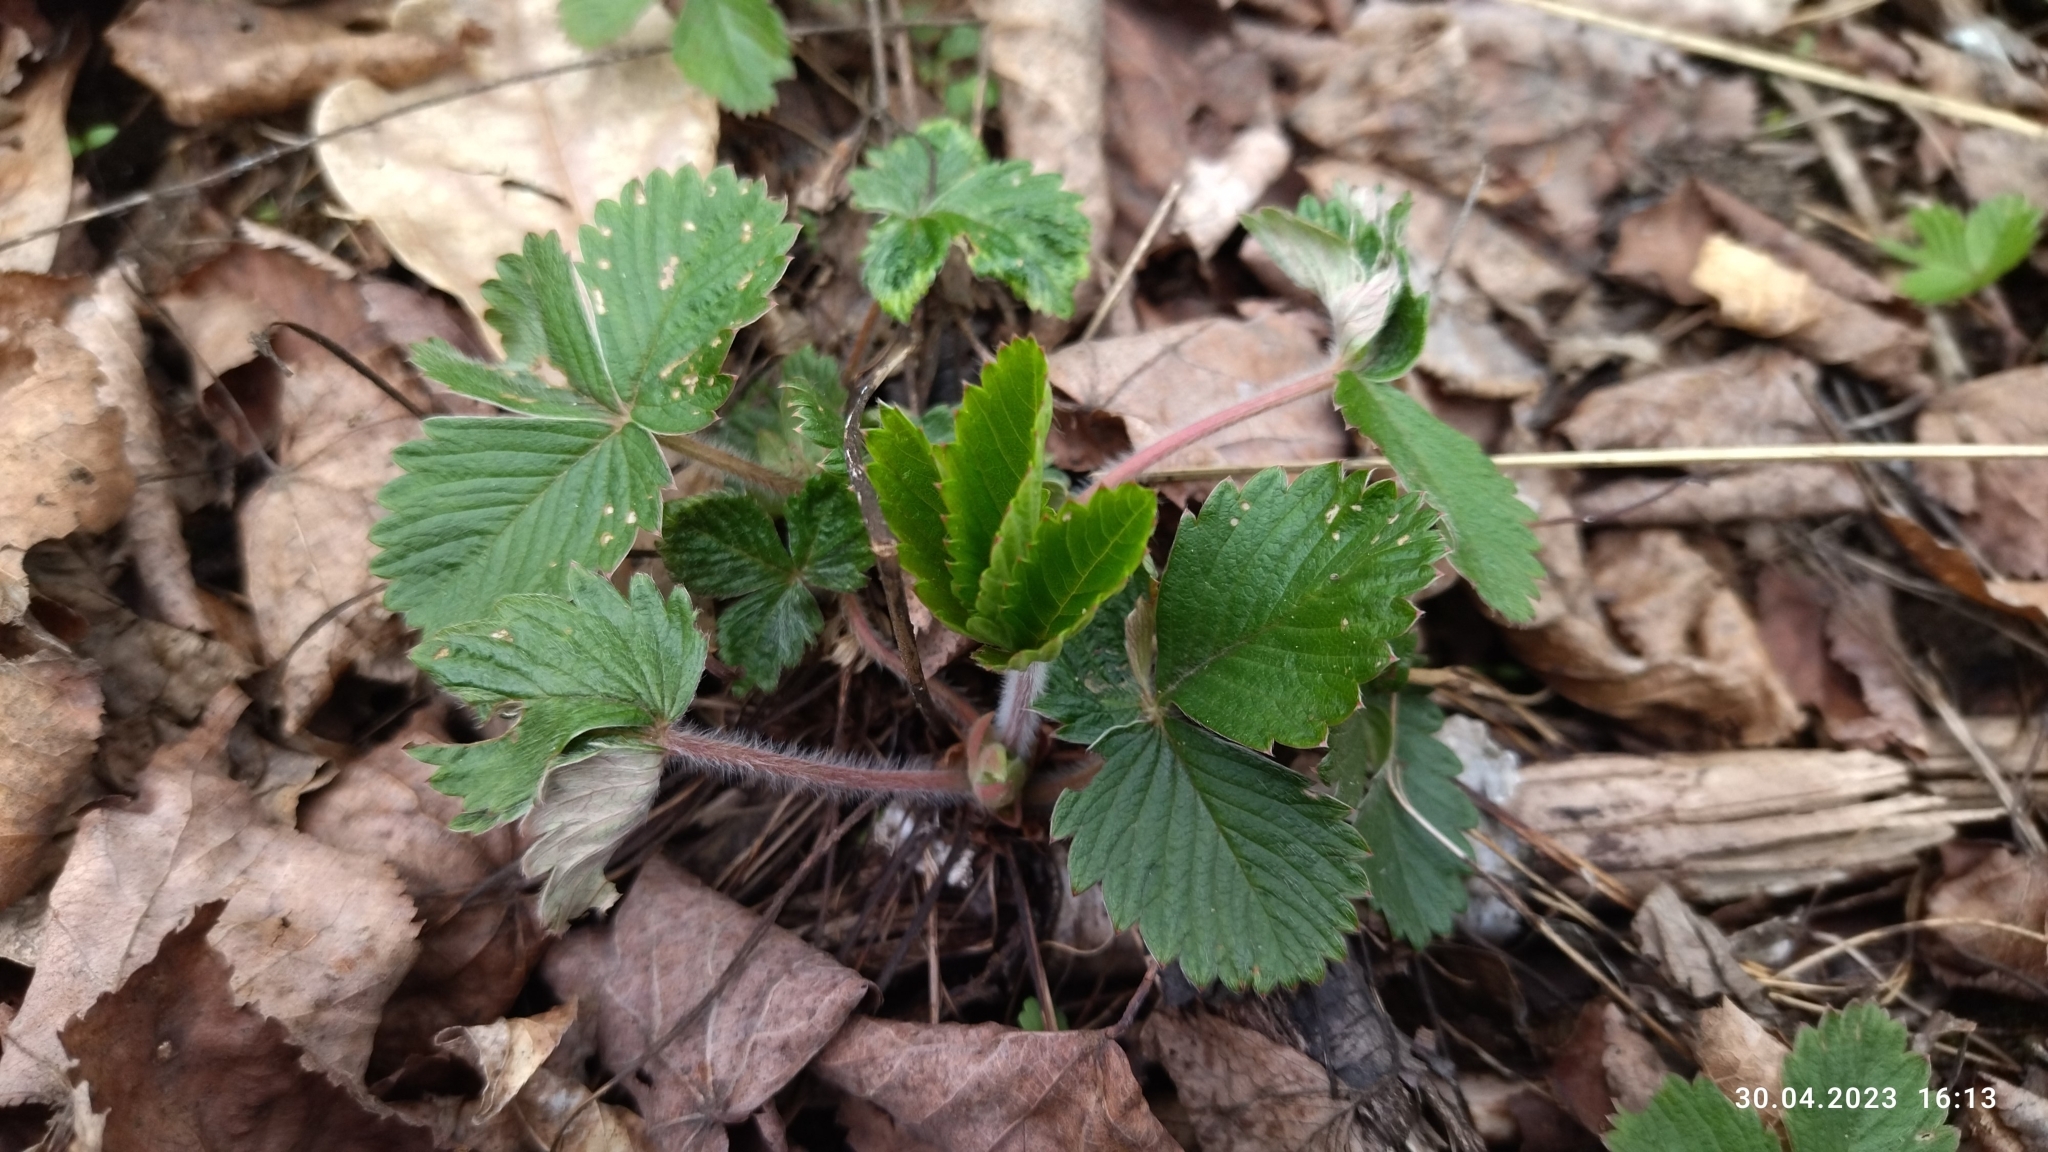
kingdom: Plantae
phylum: Tracheophyta
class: Magnoliopsida
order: Rosales
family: Rosaceae
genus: Fragaria
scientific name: Fragaria vesca
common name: Wild strawberry
